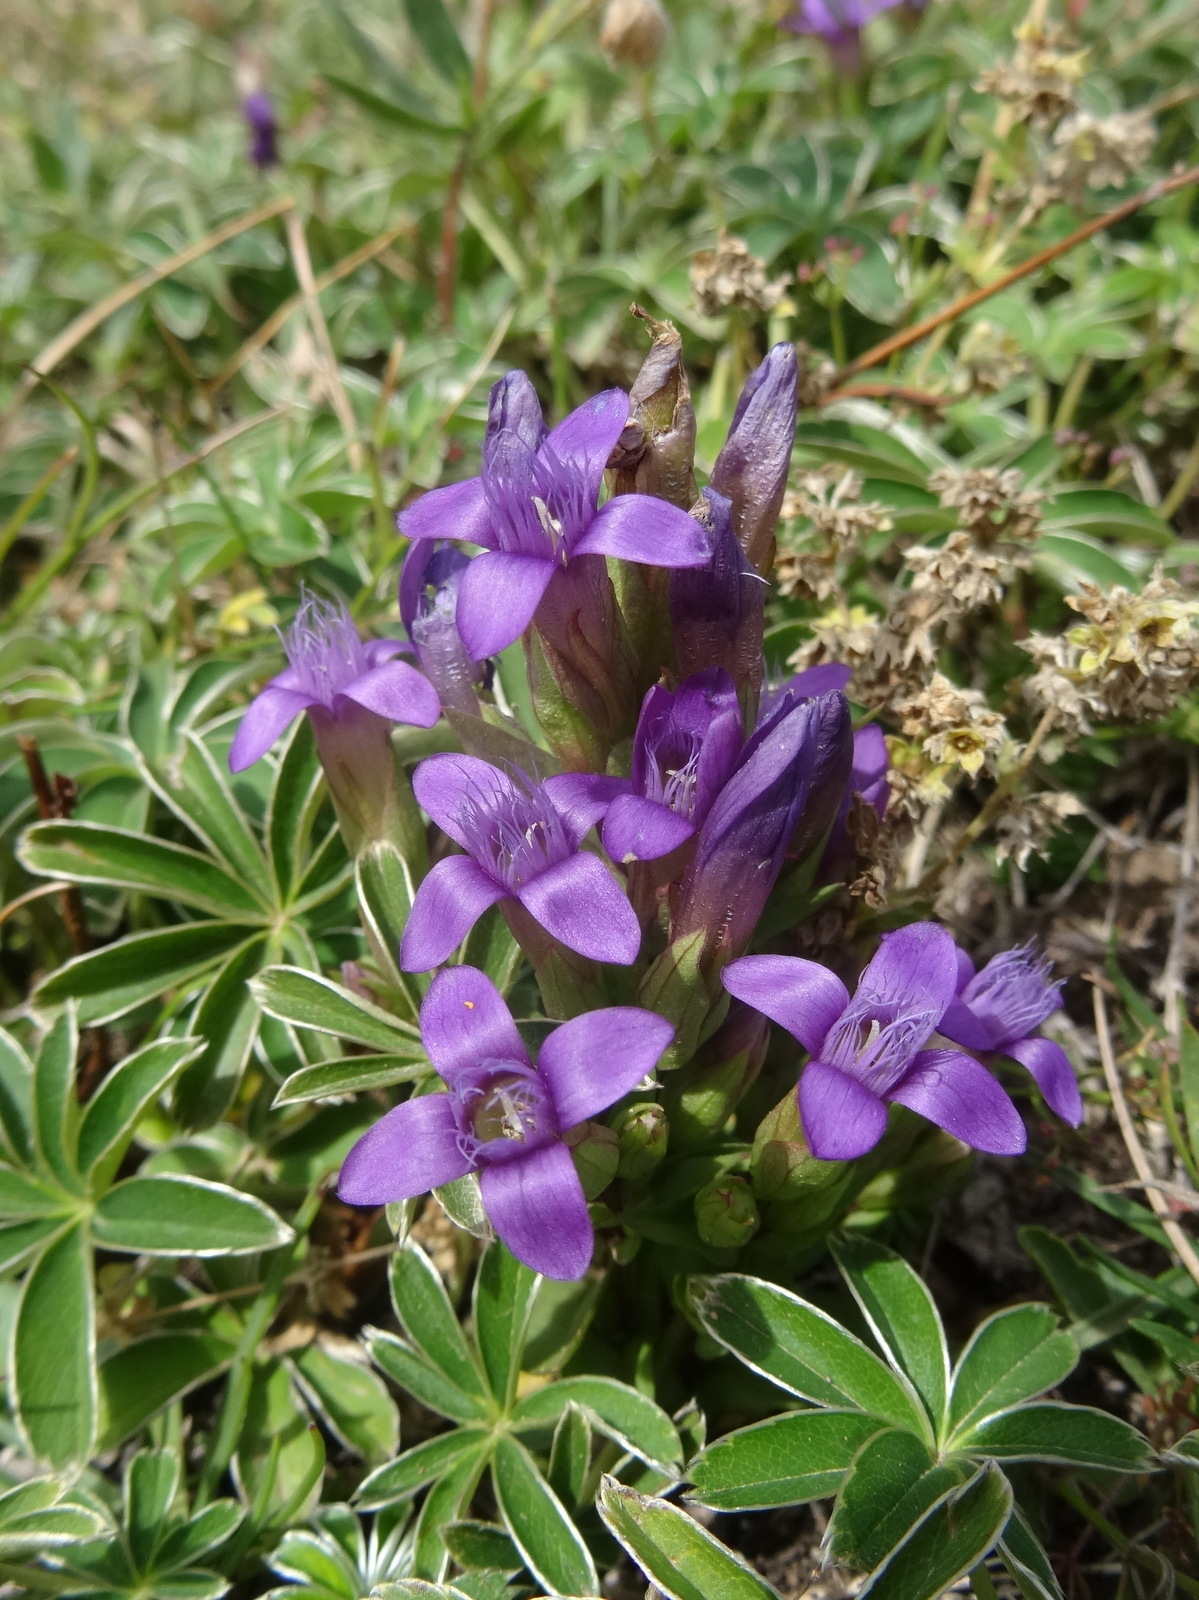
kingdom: Plantae
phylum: Tracheophyta
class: Magnoliopsida
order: Gentianales
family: Gentianaceae
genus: Gentianella
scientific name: Gentianella campestris
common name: Field gentian
